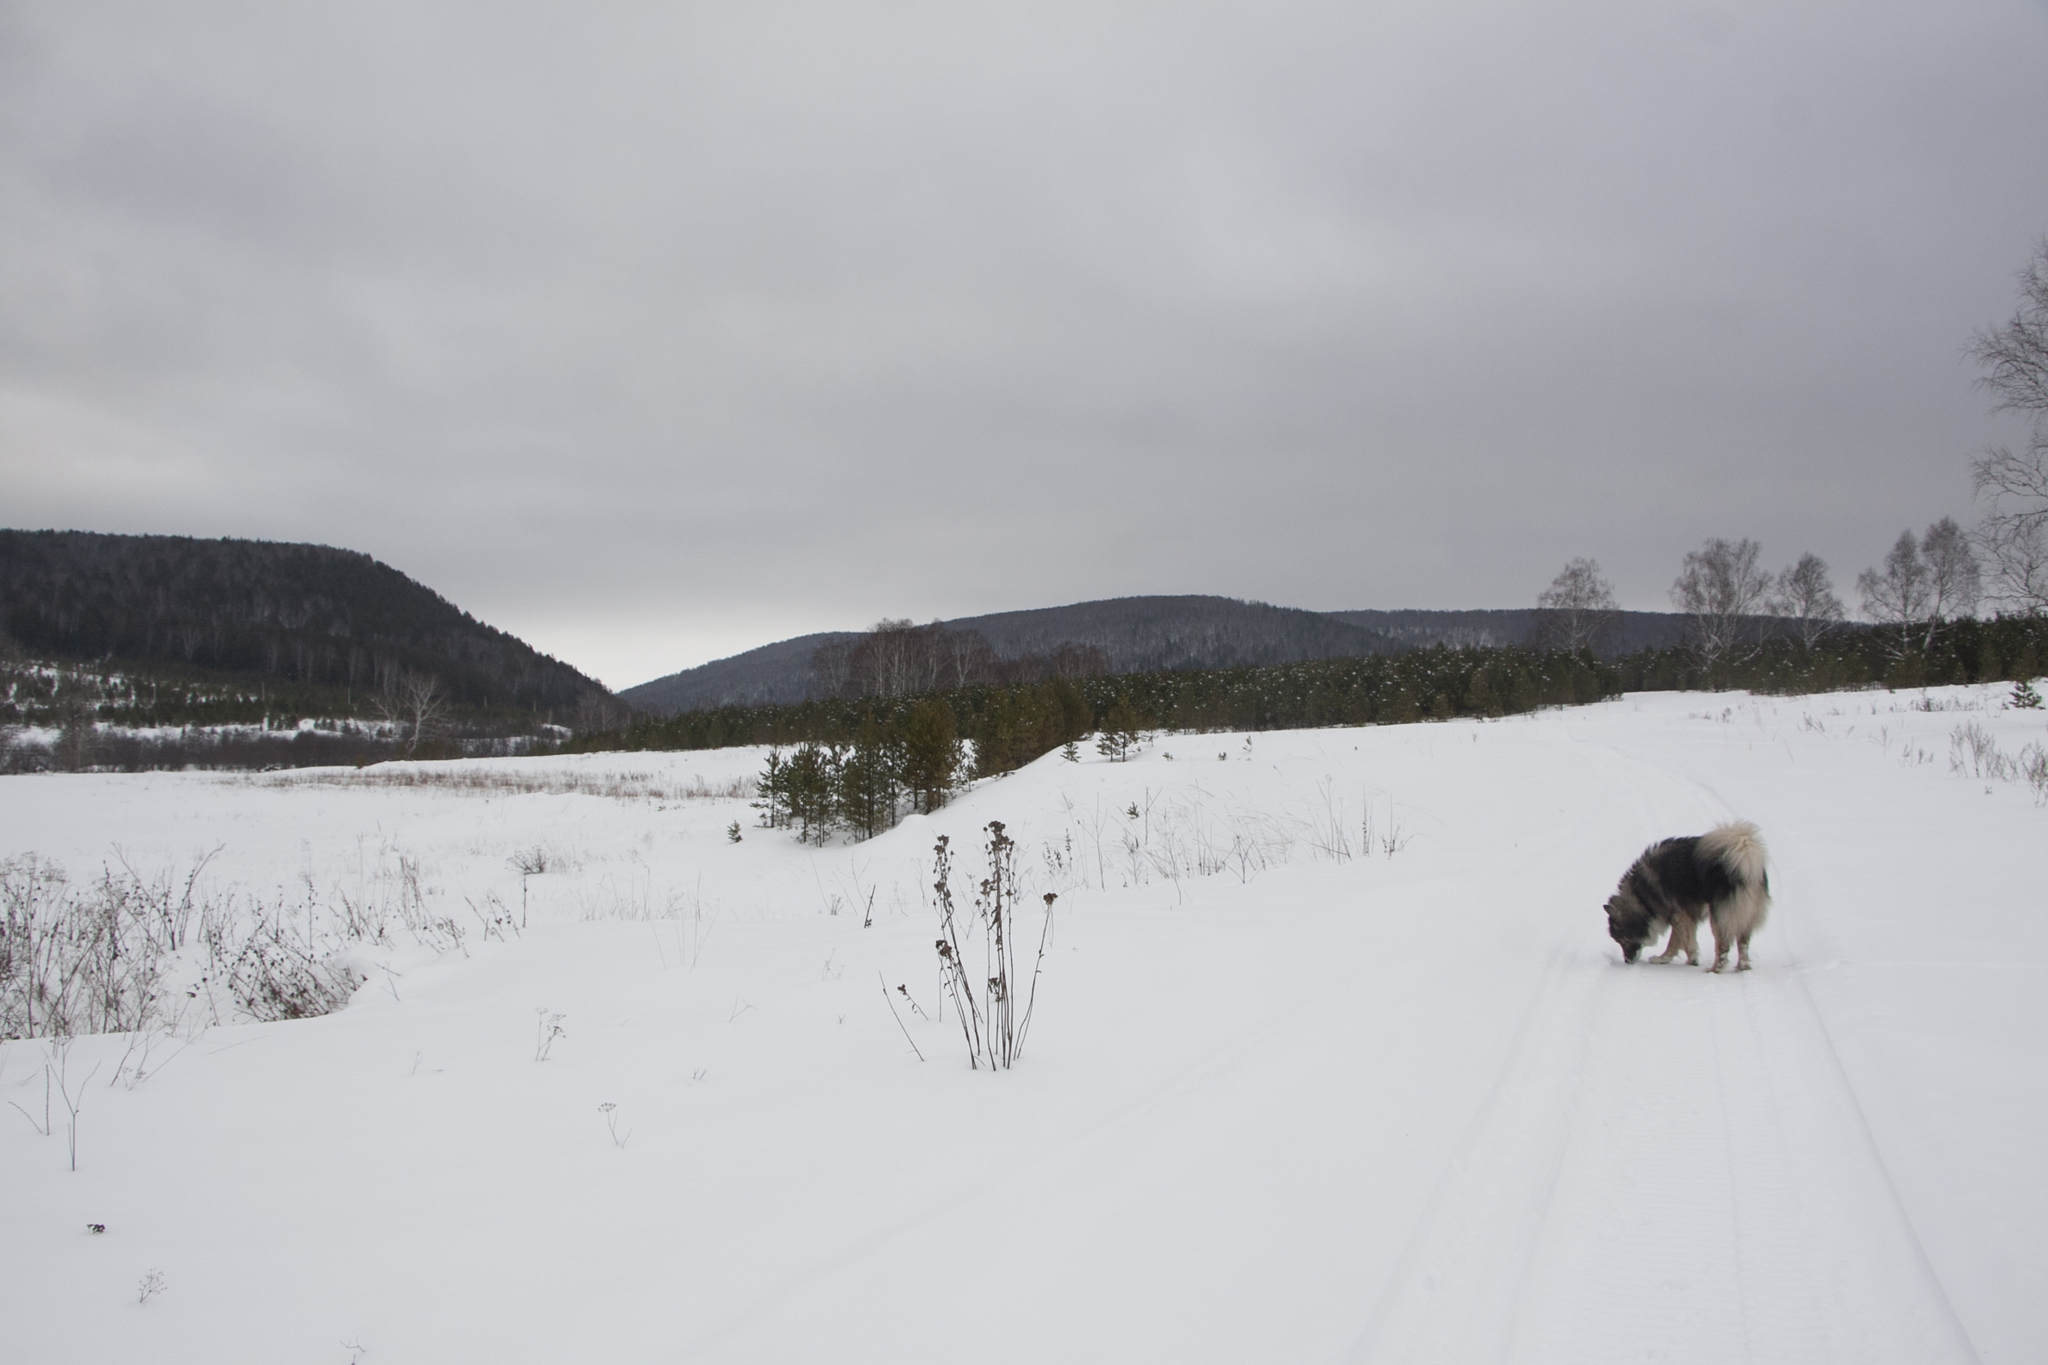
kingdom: Plantae
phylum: Tracheophyta
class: Pinopsida
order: Pinales
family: Pinaceae
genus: Pinus
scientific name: Pinus sylvestris
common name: Scots pine
